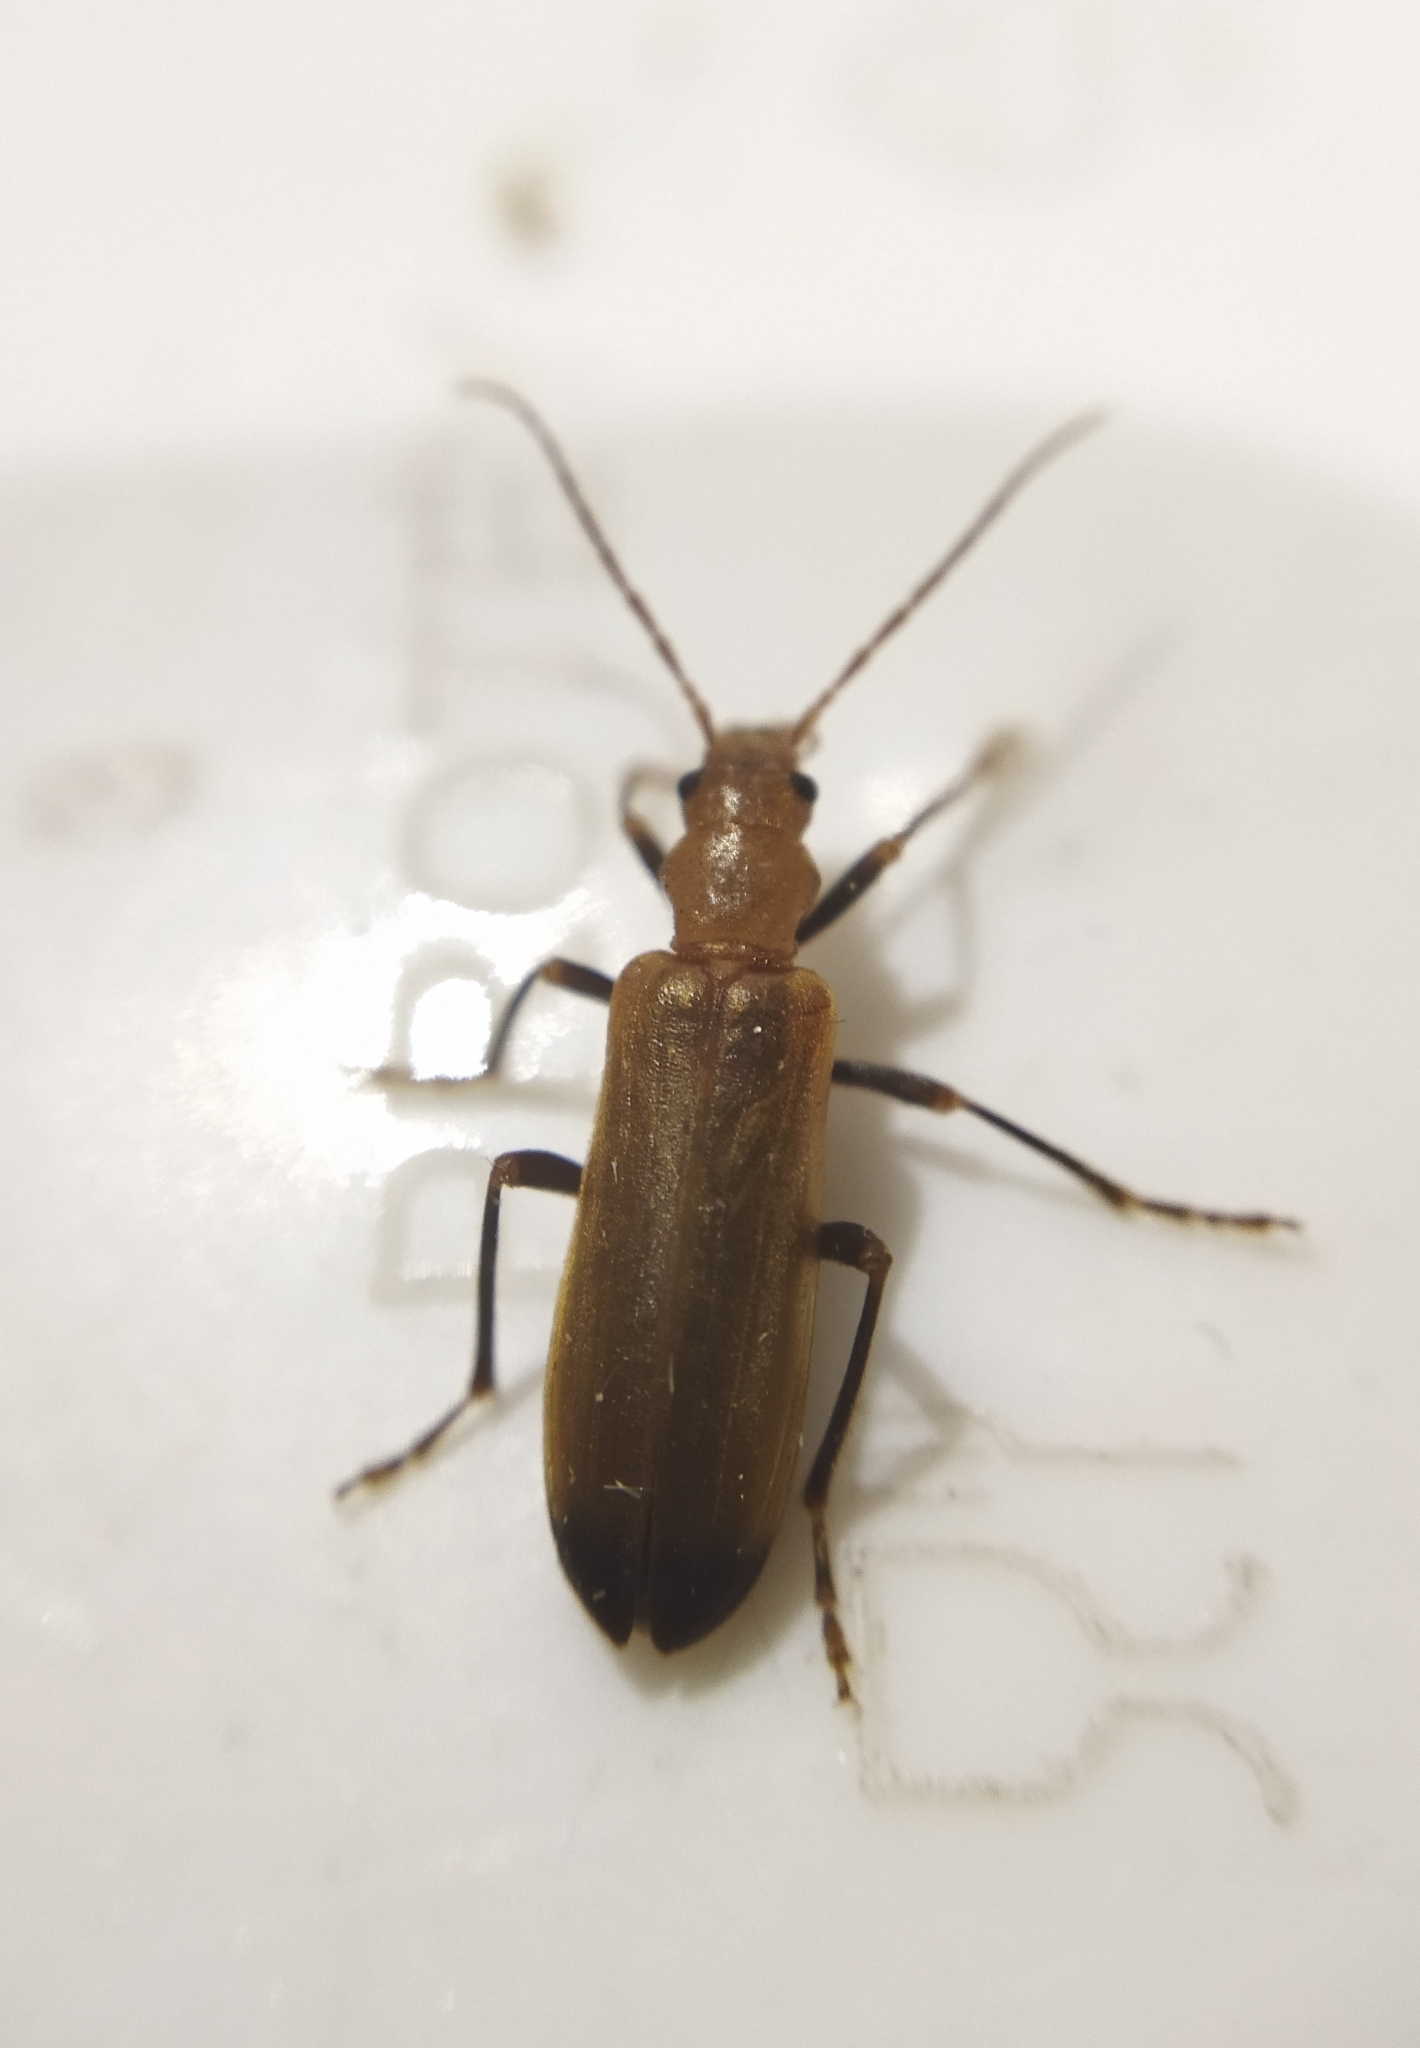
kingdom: Animalia
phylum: Arthropoda
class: Insecta
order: Coleoptera
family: Oedemeridae
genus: Nacerdes
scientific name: Nacerdes melanura
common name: Wharf borer
